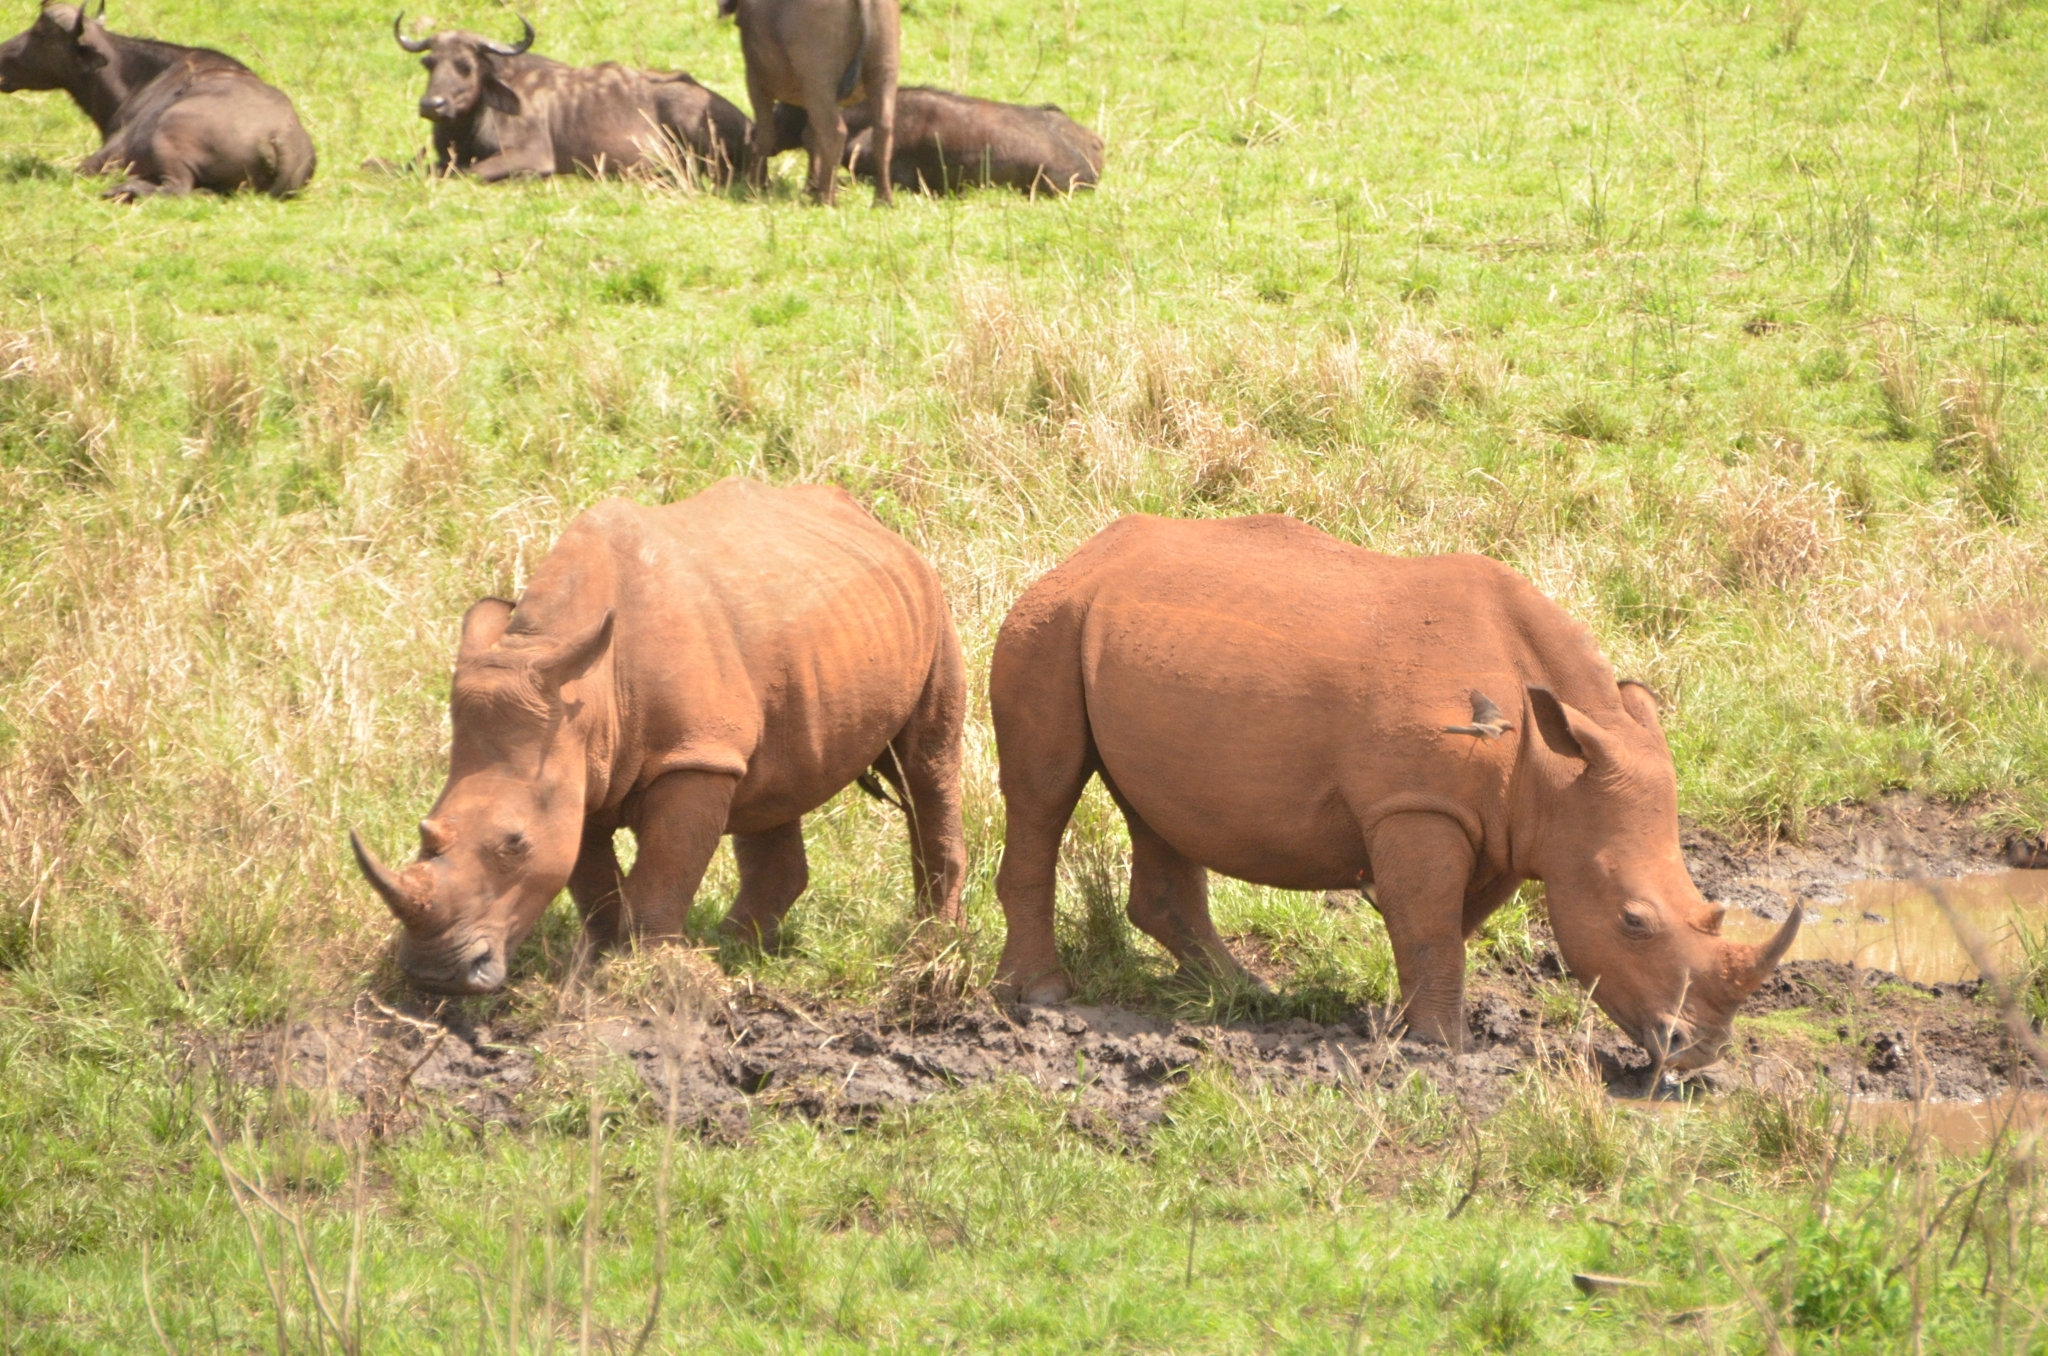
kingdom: Animalia
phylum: Chordata
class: Mammalia
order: Perissodactyla
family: Rhinocerotidae
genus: Ceratotherium
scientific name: Ceratotherium simum
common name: White rhinoceros
